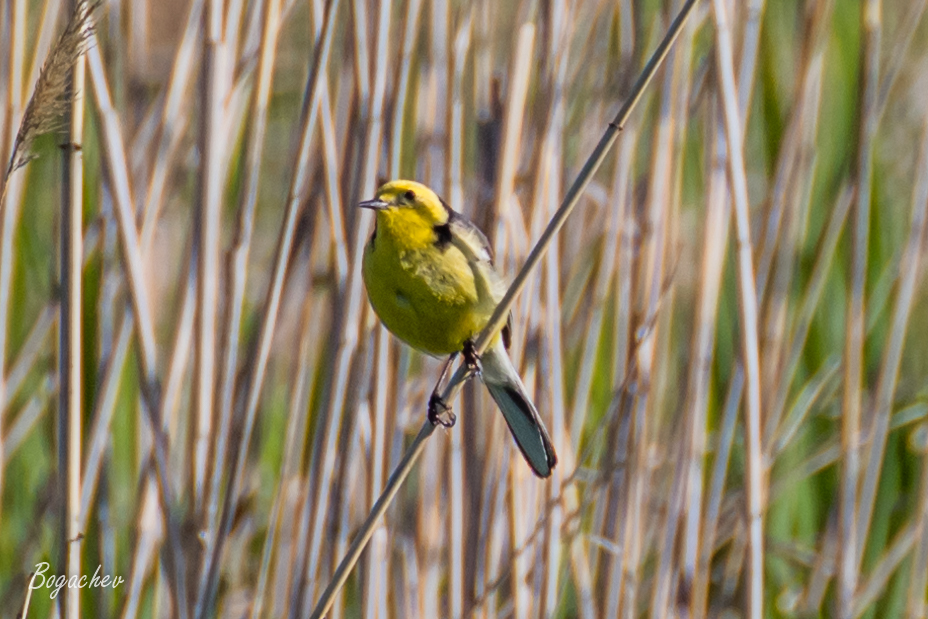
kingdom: Animalia
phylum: Chordata
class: Aves
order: Passeriformes
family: Motacillidae
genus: Motacilla
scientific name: Motacilla citreola
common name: Citrine wagtail
